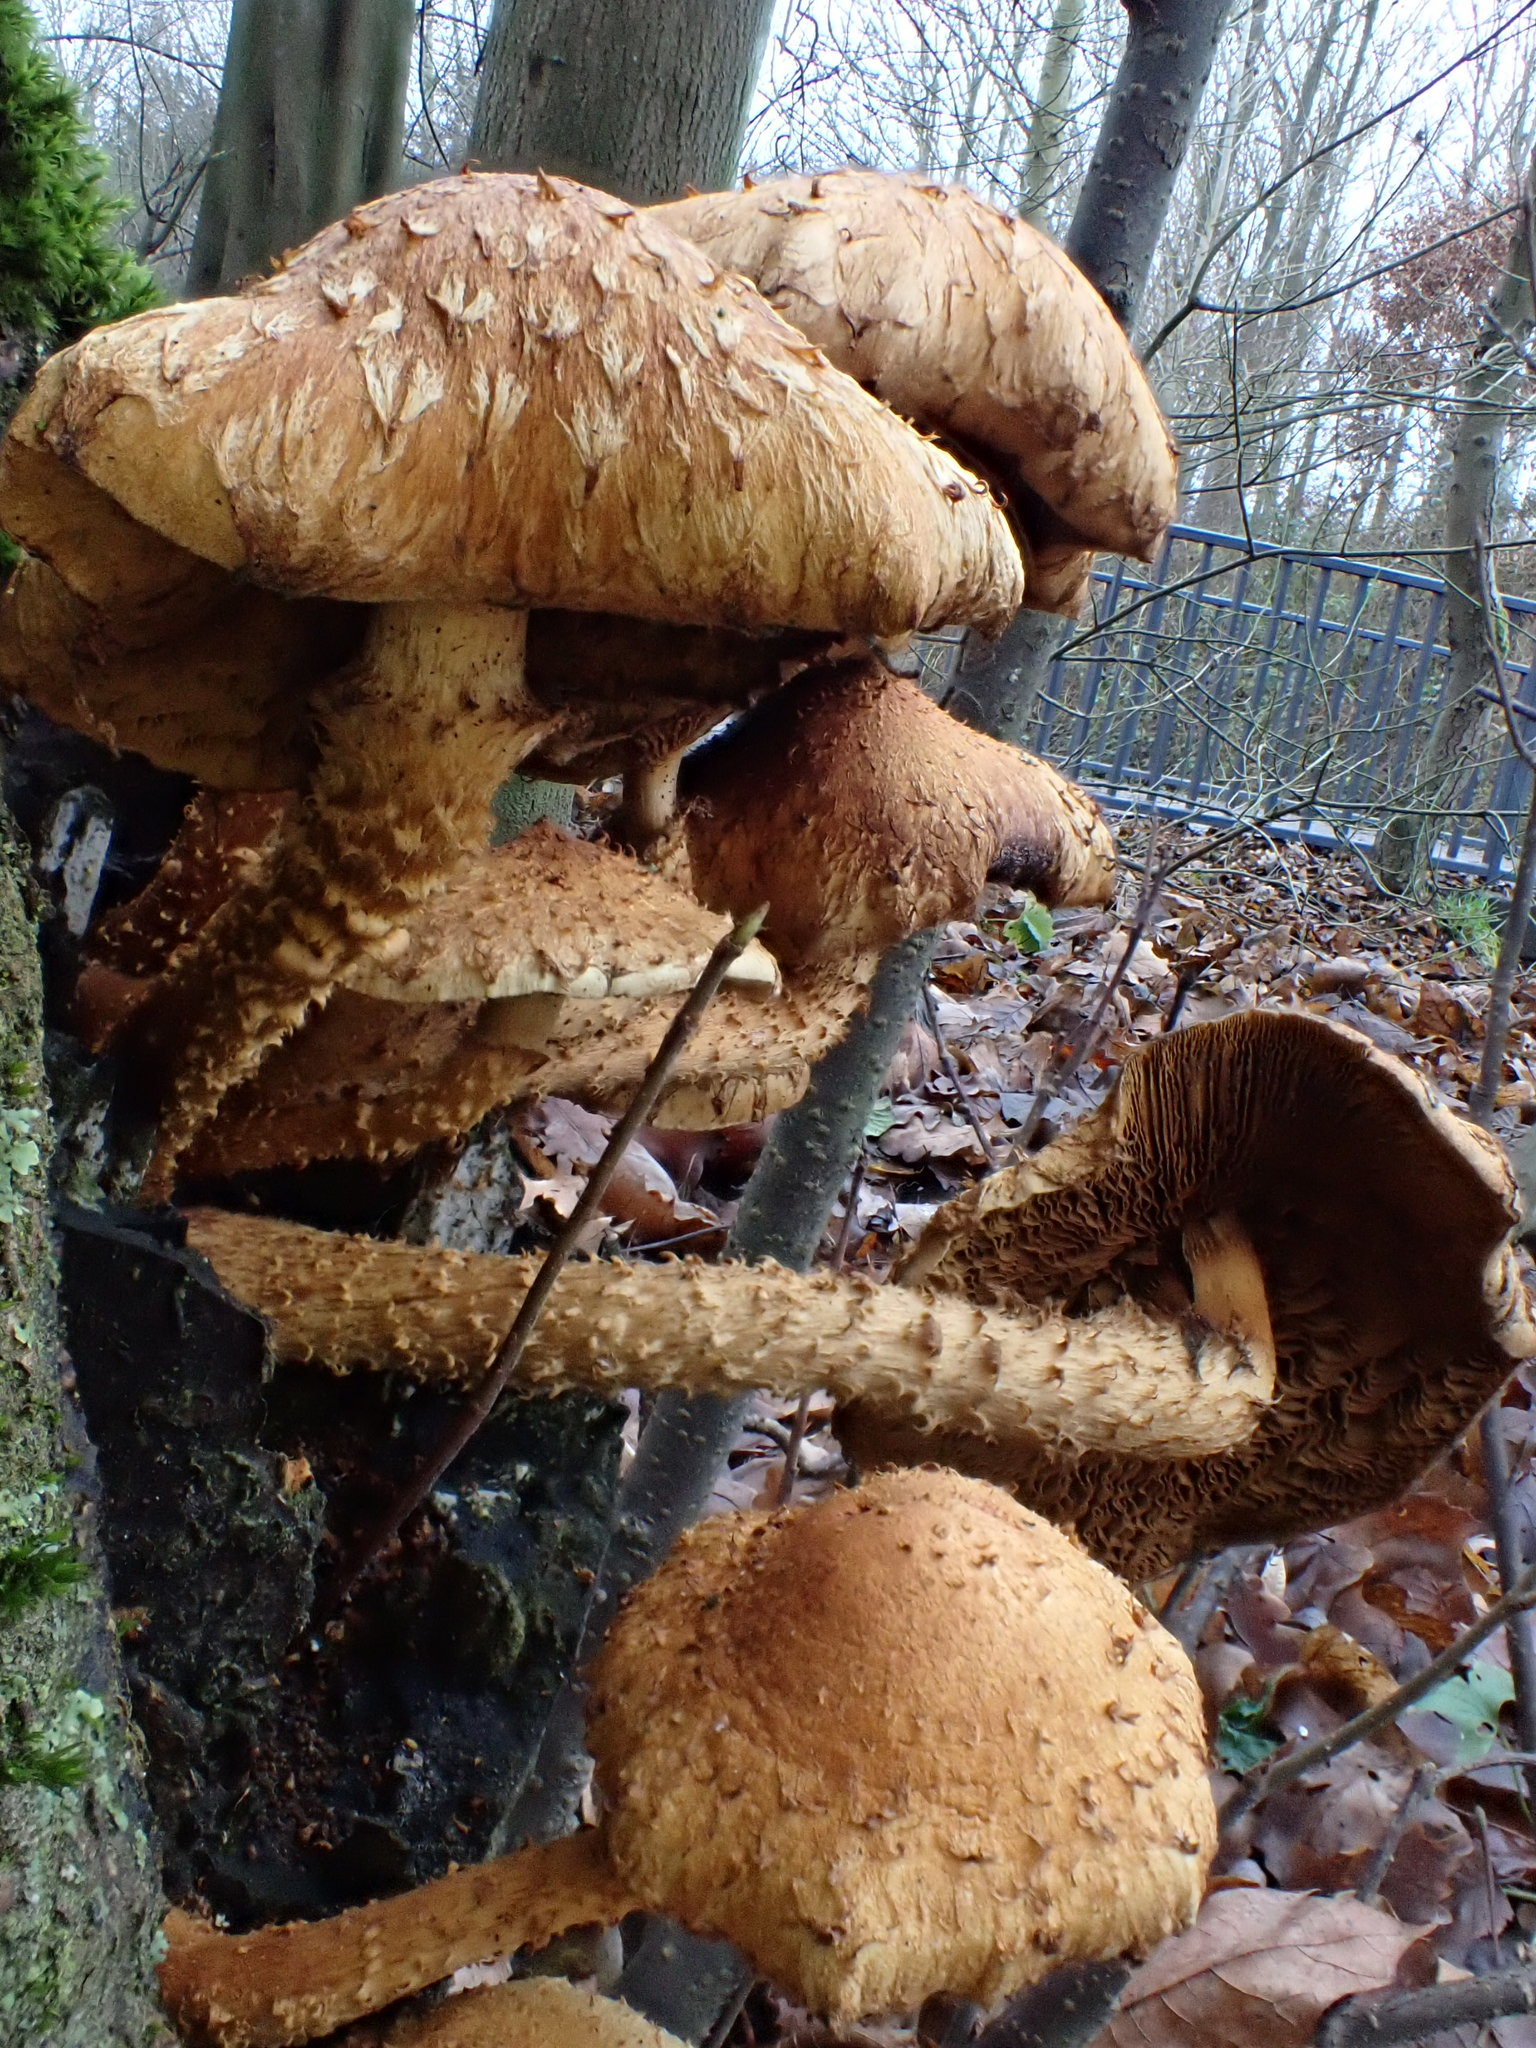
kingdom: Fungi
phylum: Basidiomycota
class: Agaricomycetes
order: Agaricales
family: Strophariaceae
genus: Pholiota
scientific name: Pholiota squarrosa
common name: Shaggy pholiota
